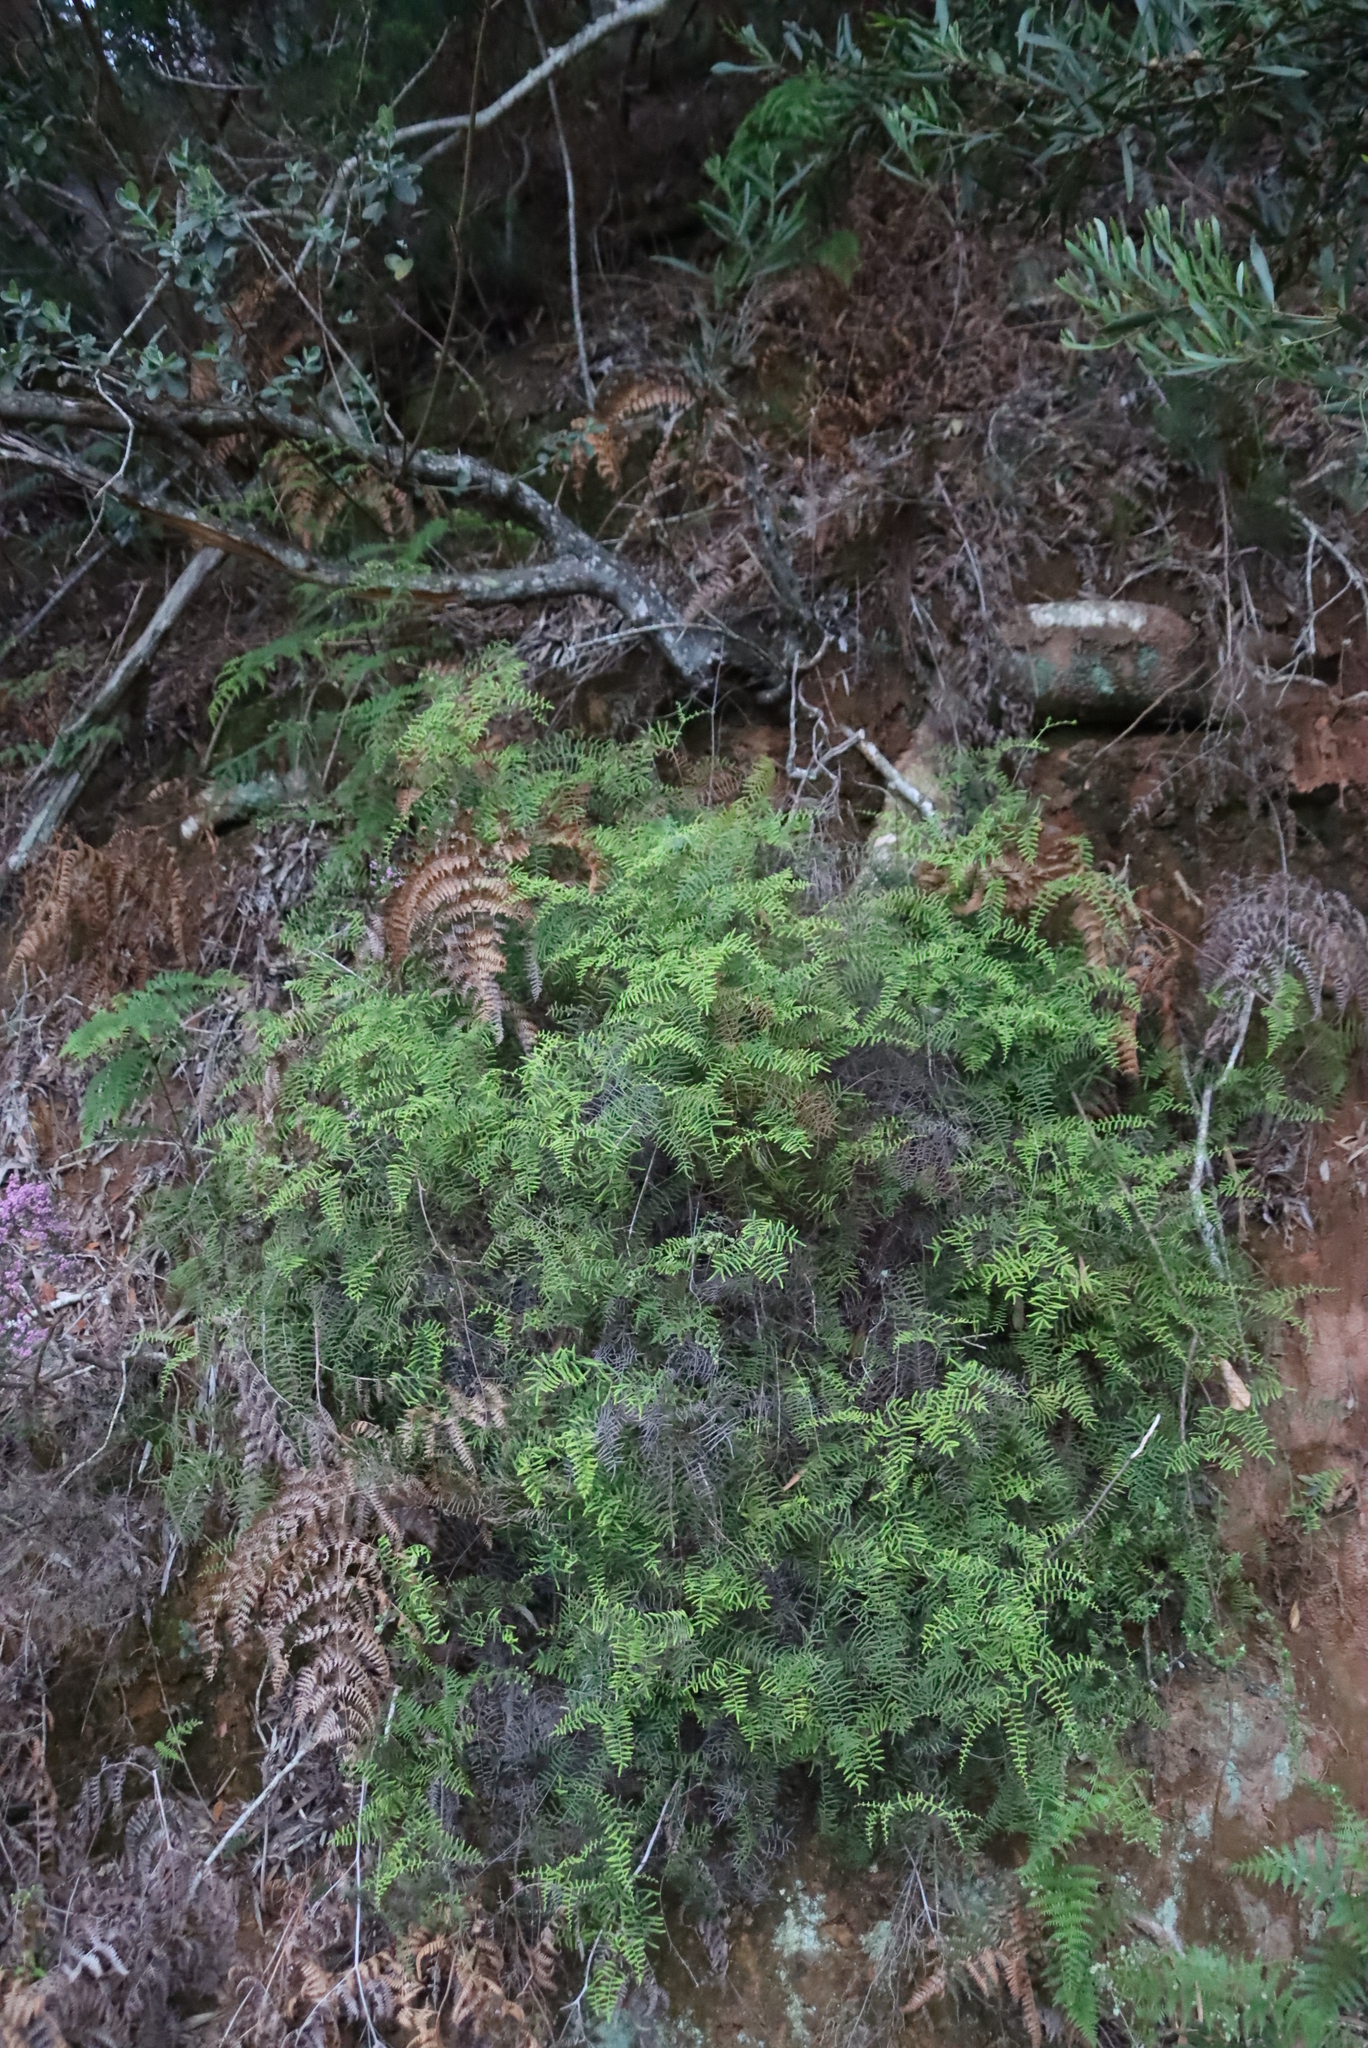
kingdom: Plantae
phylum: Tracheophyta
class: Polypodiopsida
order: Gleicheniales
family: Gleicheniaceae
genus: Gleichenia
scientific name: Gleichenia polypodioides
